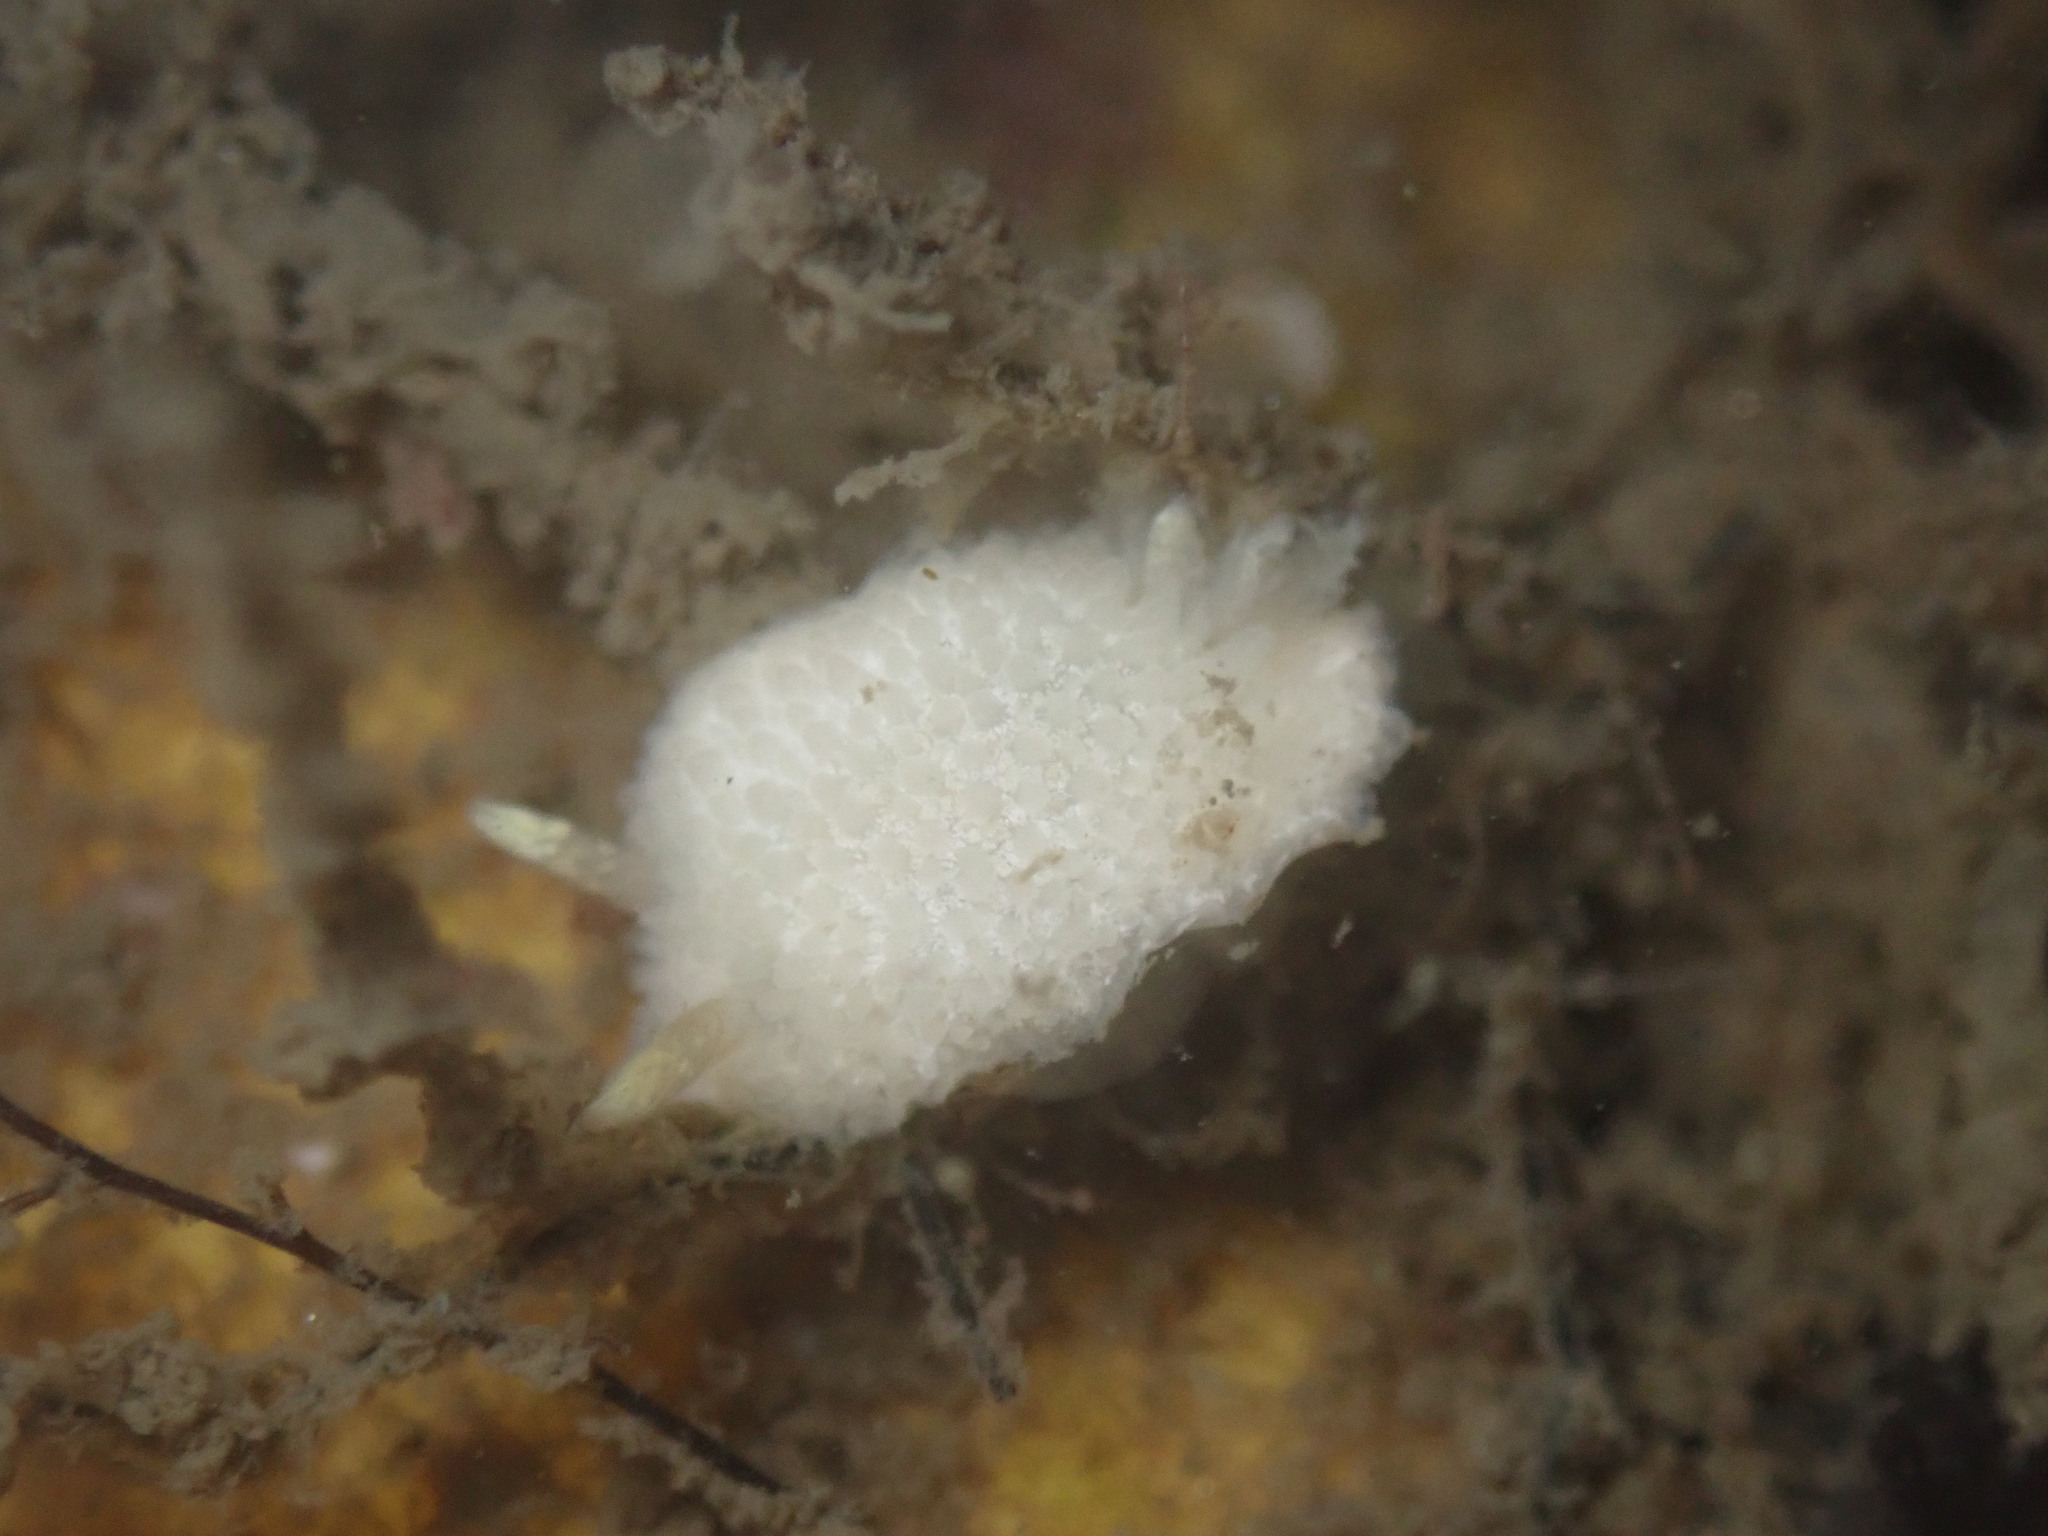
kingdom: Animalia
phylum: Mollusca
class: Gastropoda
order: Nudibranchia
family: Calycidorididae
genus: Diaphorodoris
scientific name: Diaphorodoris lirulatocauda
